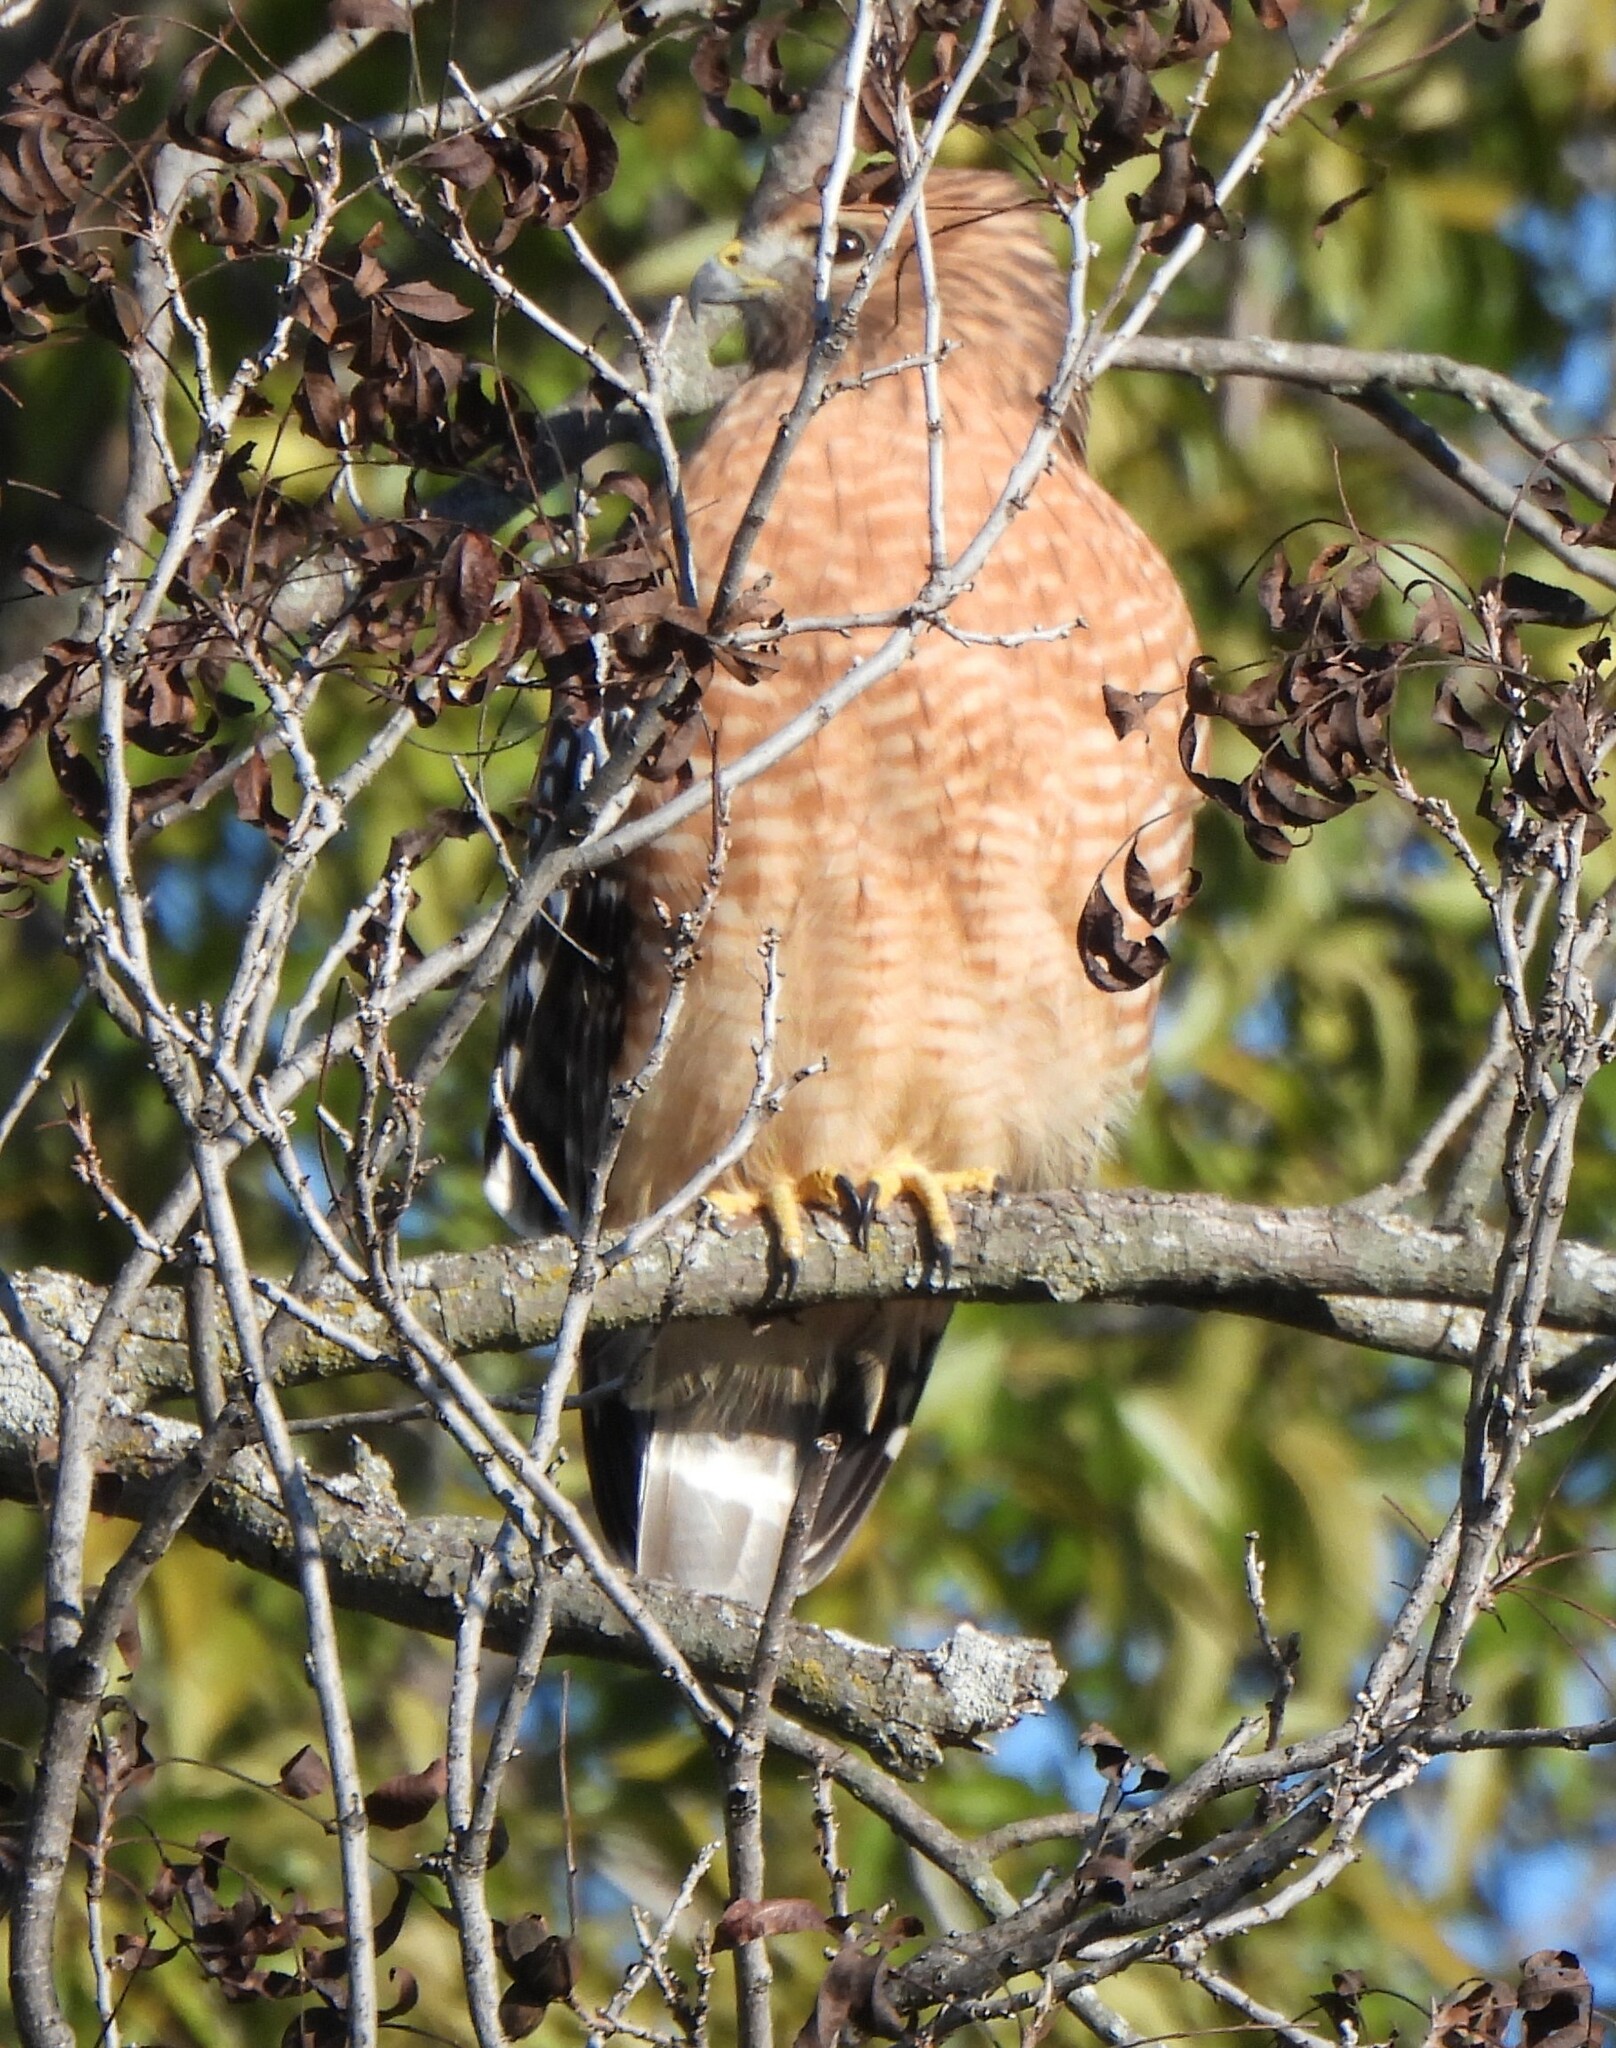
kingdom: Animalia
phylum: Chordata
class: Aves
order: Accipitriformes
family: Accipitridae
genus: Buteo
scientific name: Buteo lineatus
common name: Red-shouldered hawk
